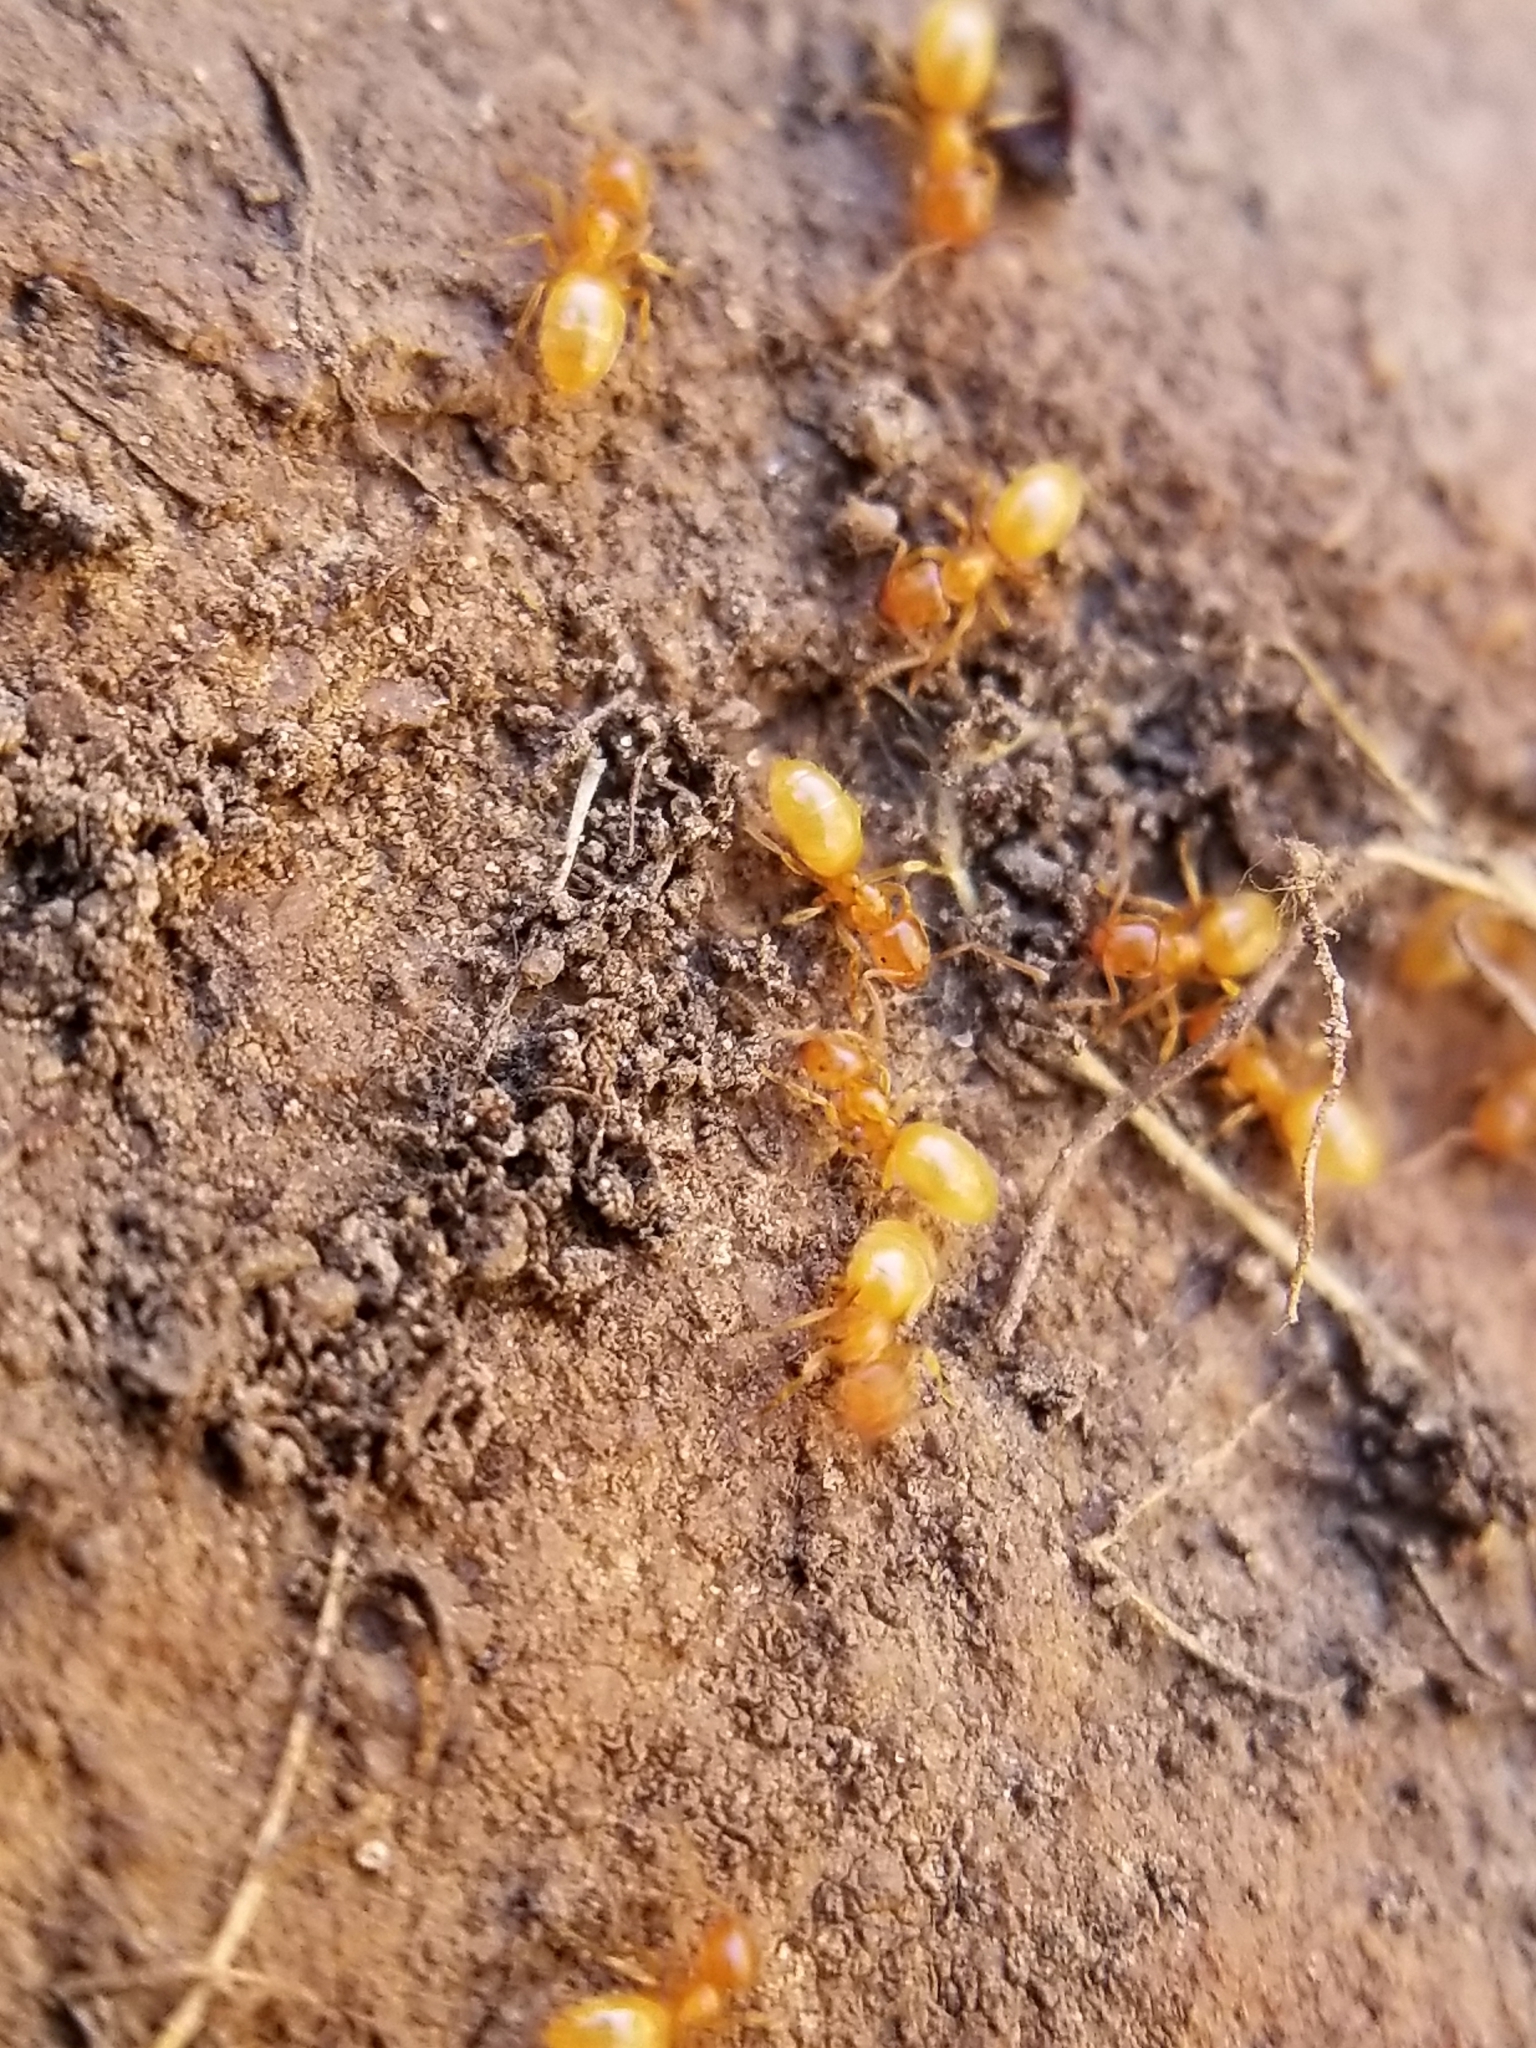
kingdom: Animalia
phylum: Arthropoda
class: Insecta
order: Hymenoptera
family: Formicidae
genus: Lasius
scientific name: Lasius
